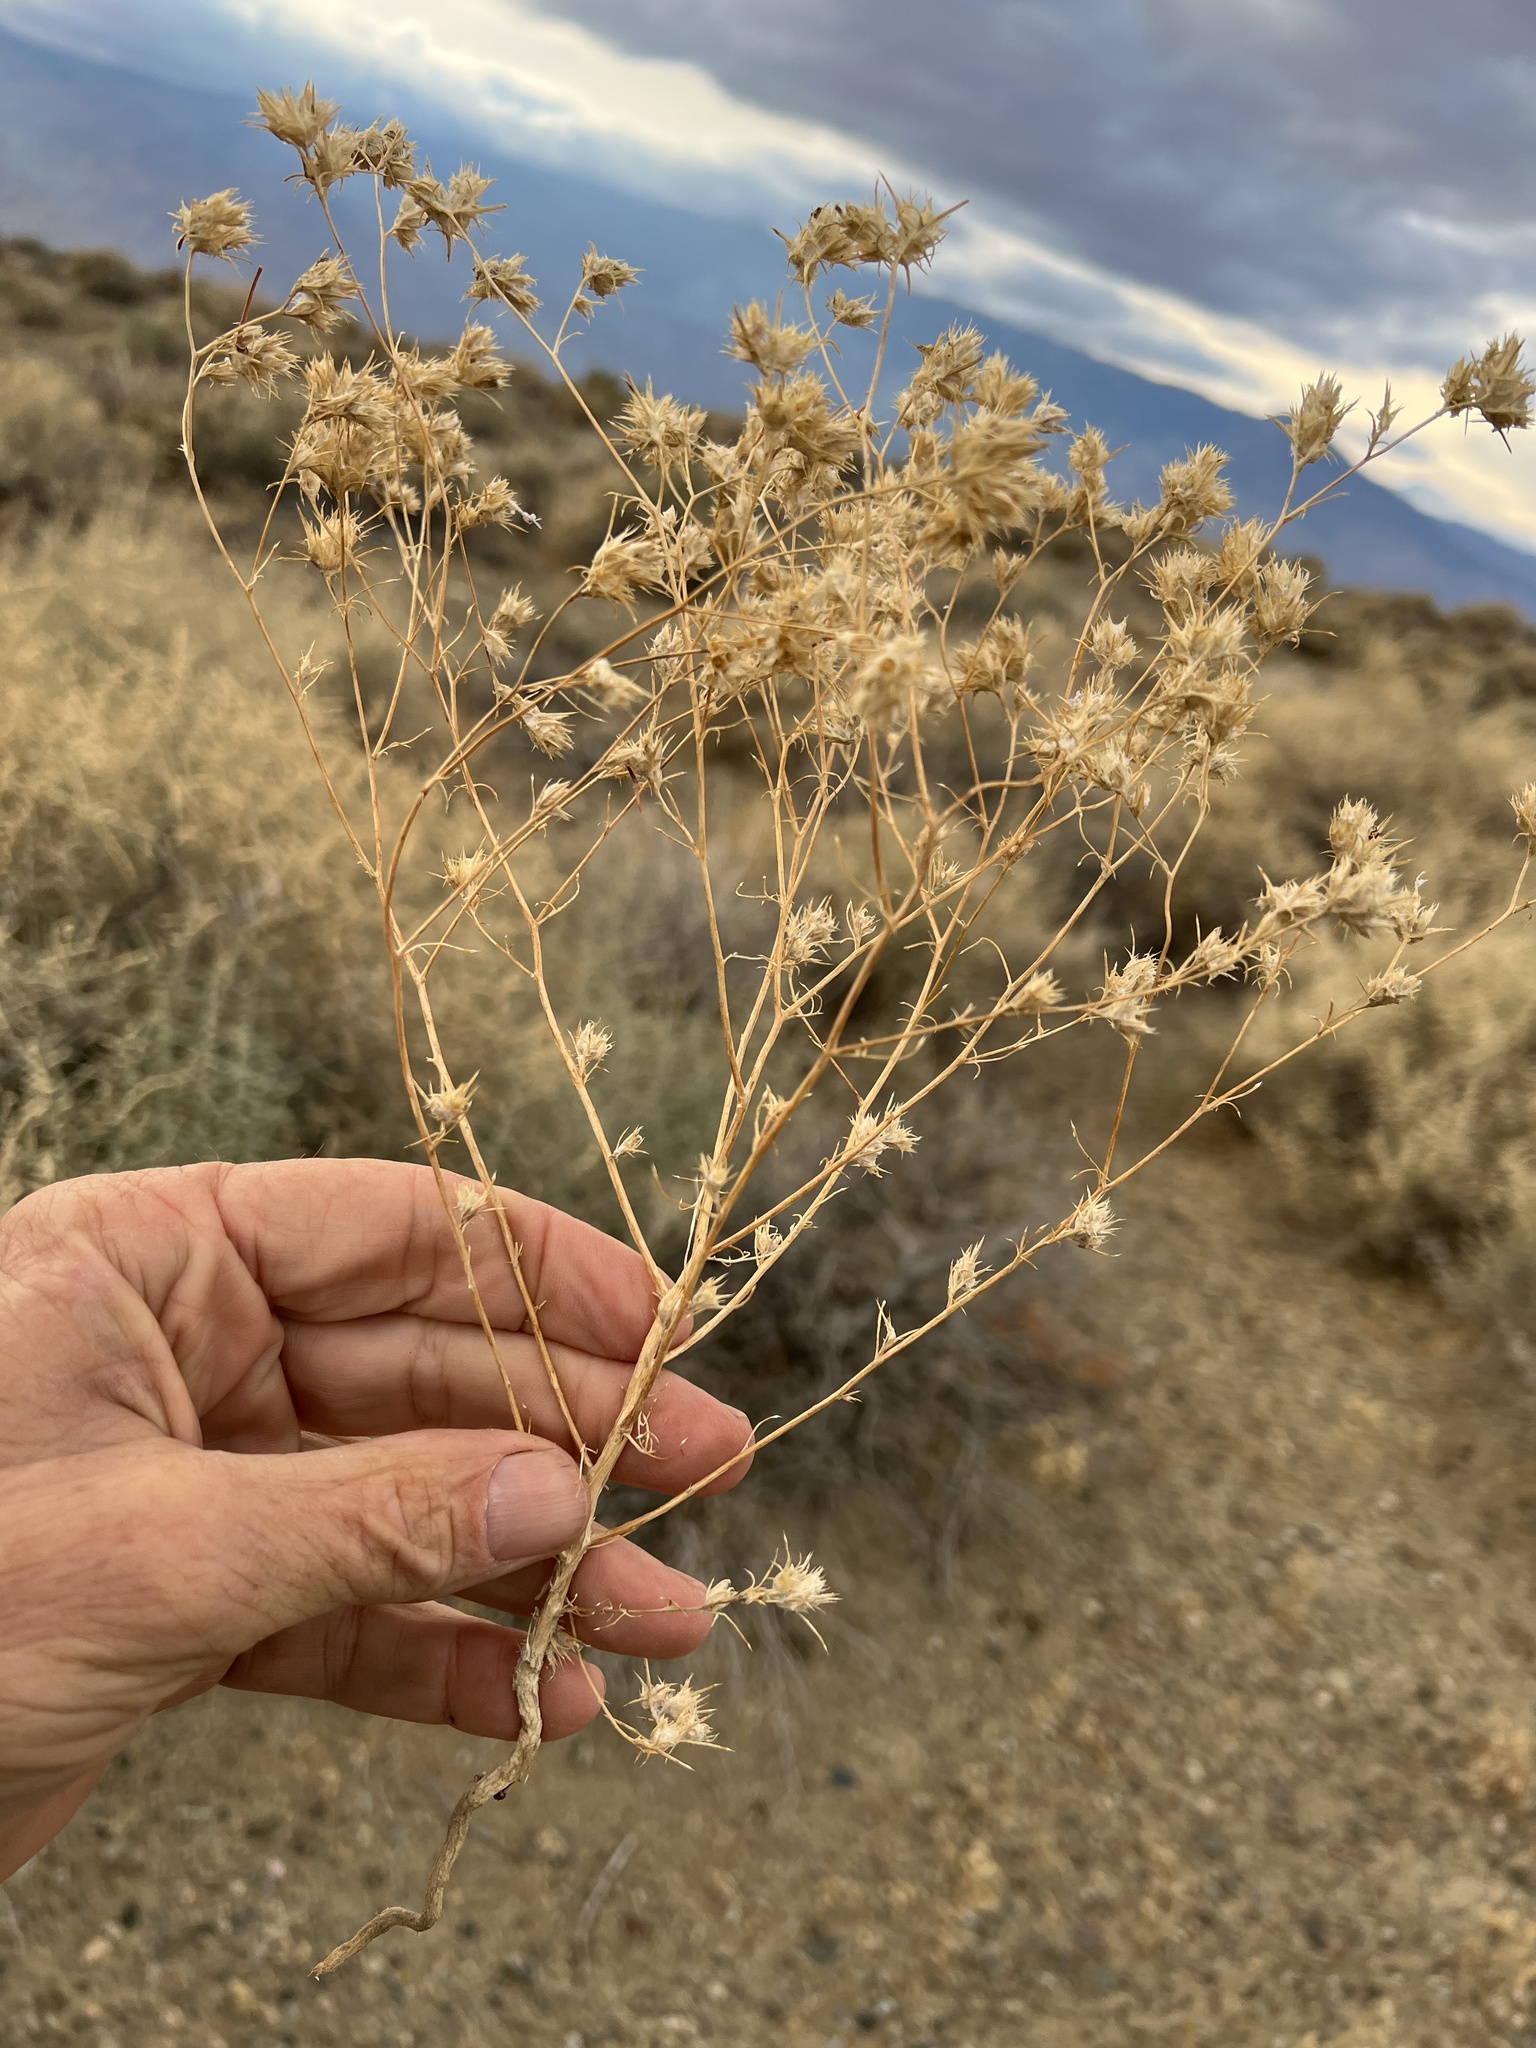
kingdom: Plantae
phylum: Tracheophyta
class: Magnoliopsida
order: Ericales
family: Polemoniaceae
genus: Eriastrum
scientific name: Eriastrum wilcoxii
